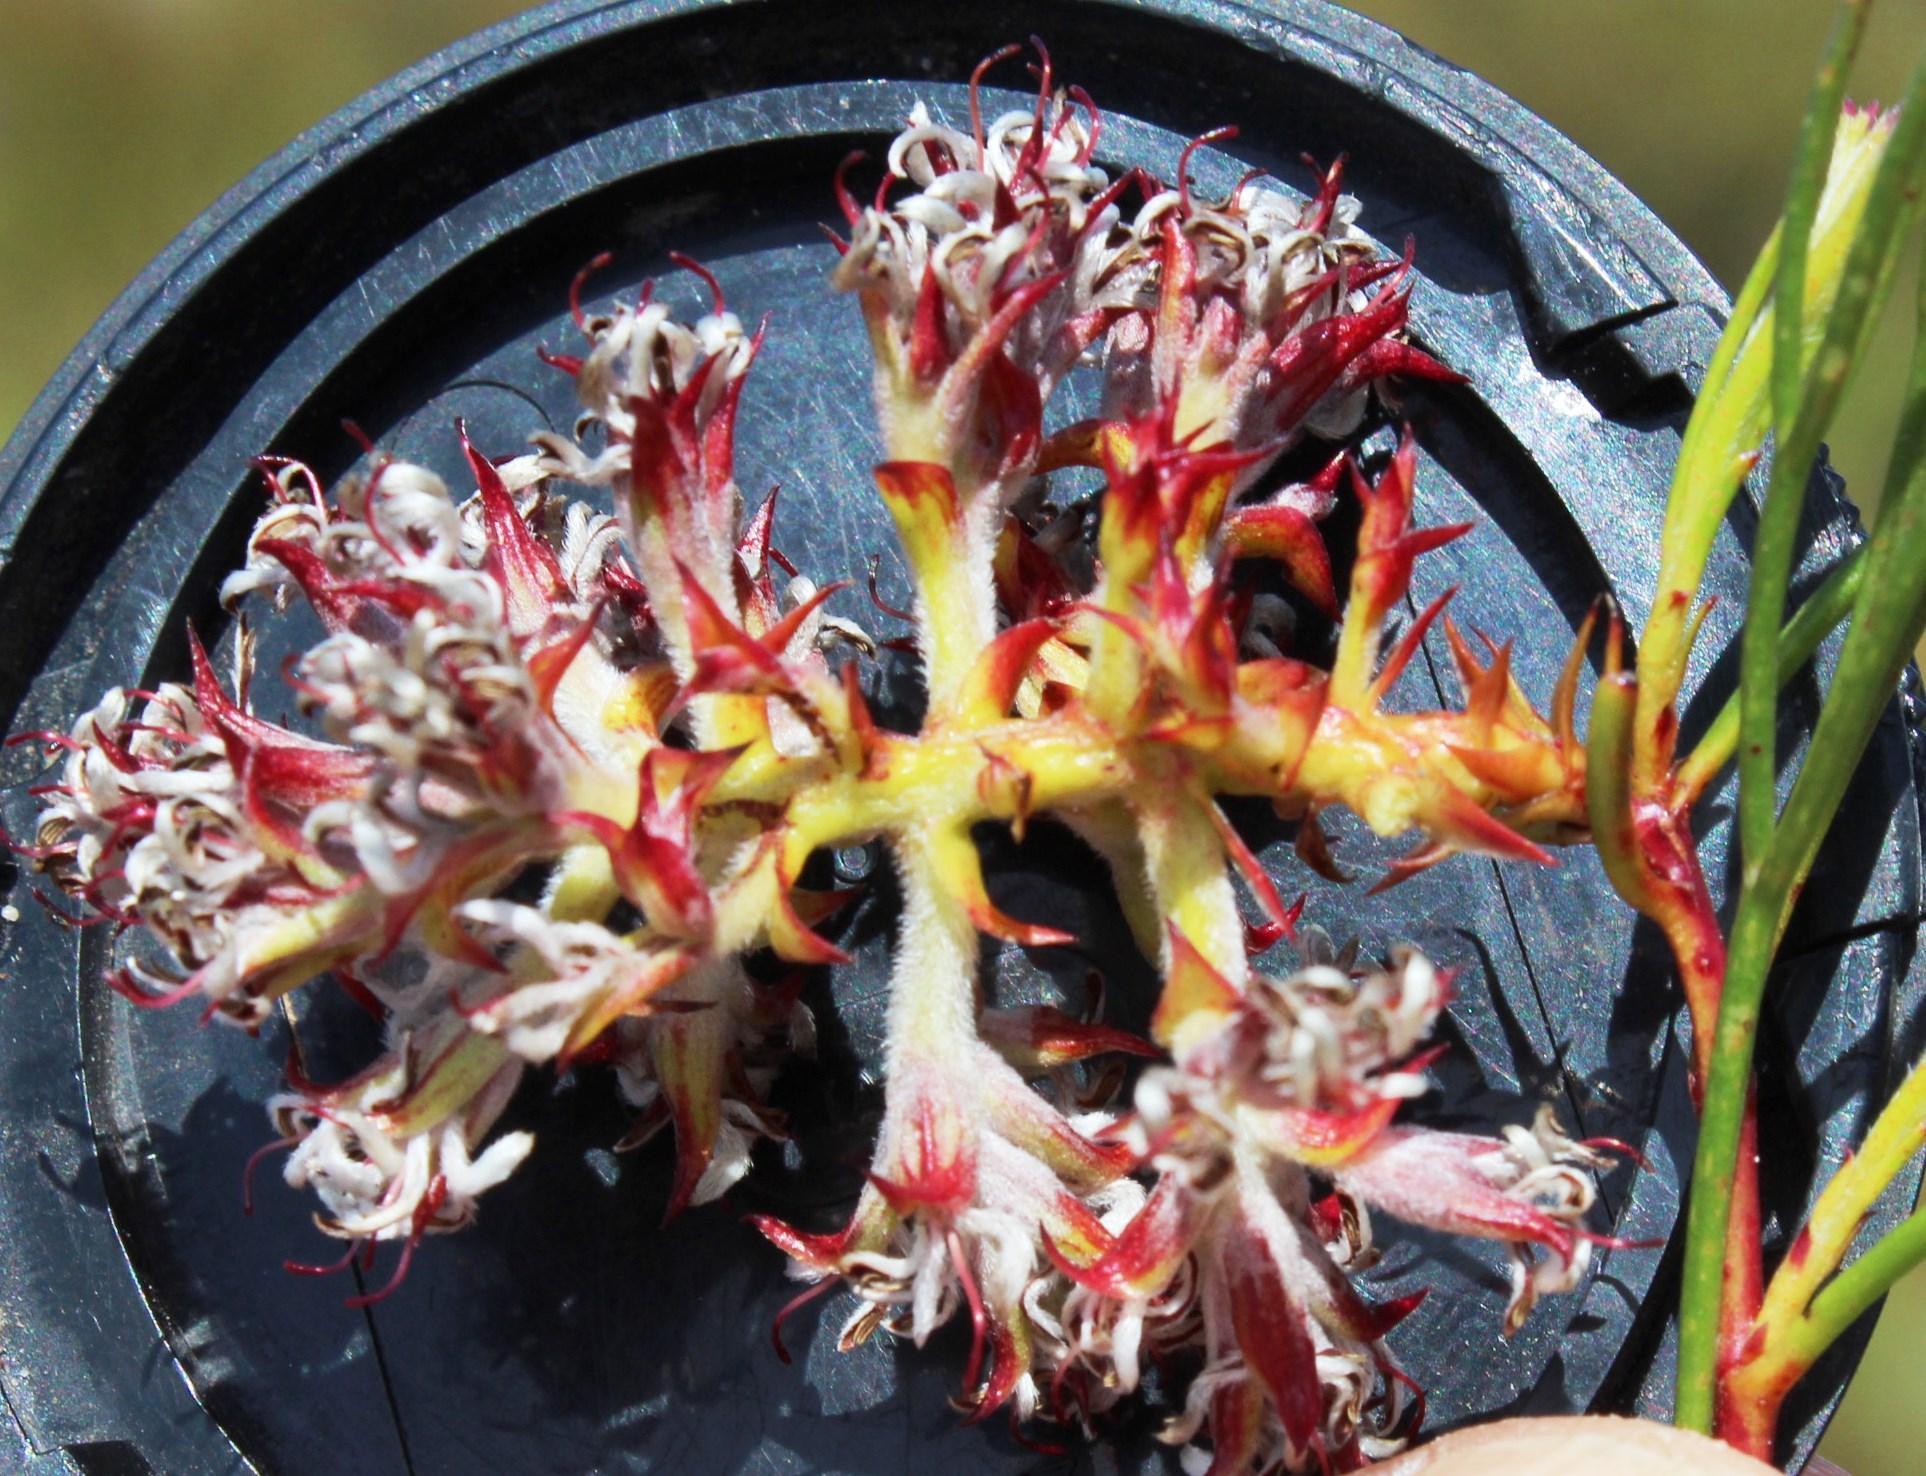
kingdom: Plantae
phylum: Tracheophyta
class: Magnoliopsida
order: Proteales
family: Proteaceae
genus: Serruria
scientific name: Serruria rubricaulis
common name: Red-stem spiderhead
